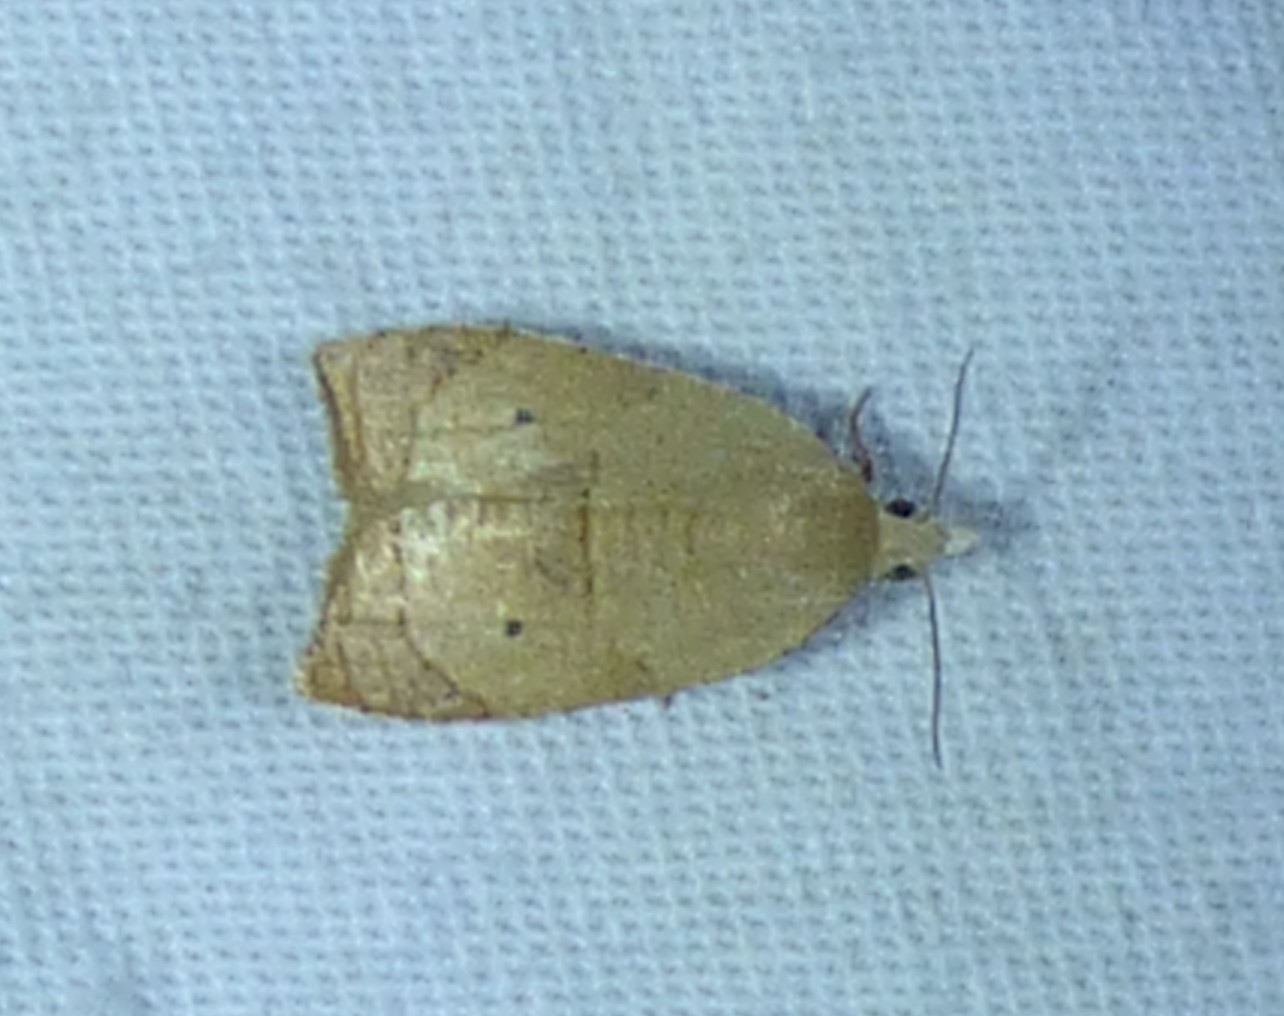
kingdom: Animalia
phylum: Arthropoda
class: Insecta
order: Lepidoptera
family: Tortricidae
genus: Coelostathma
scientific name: Coelostathma discopunctana
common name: Batman moth
